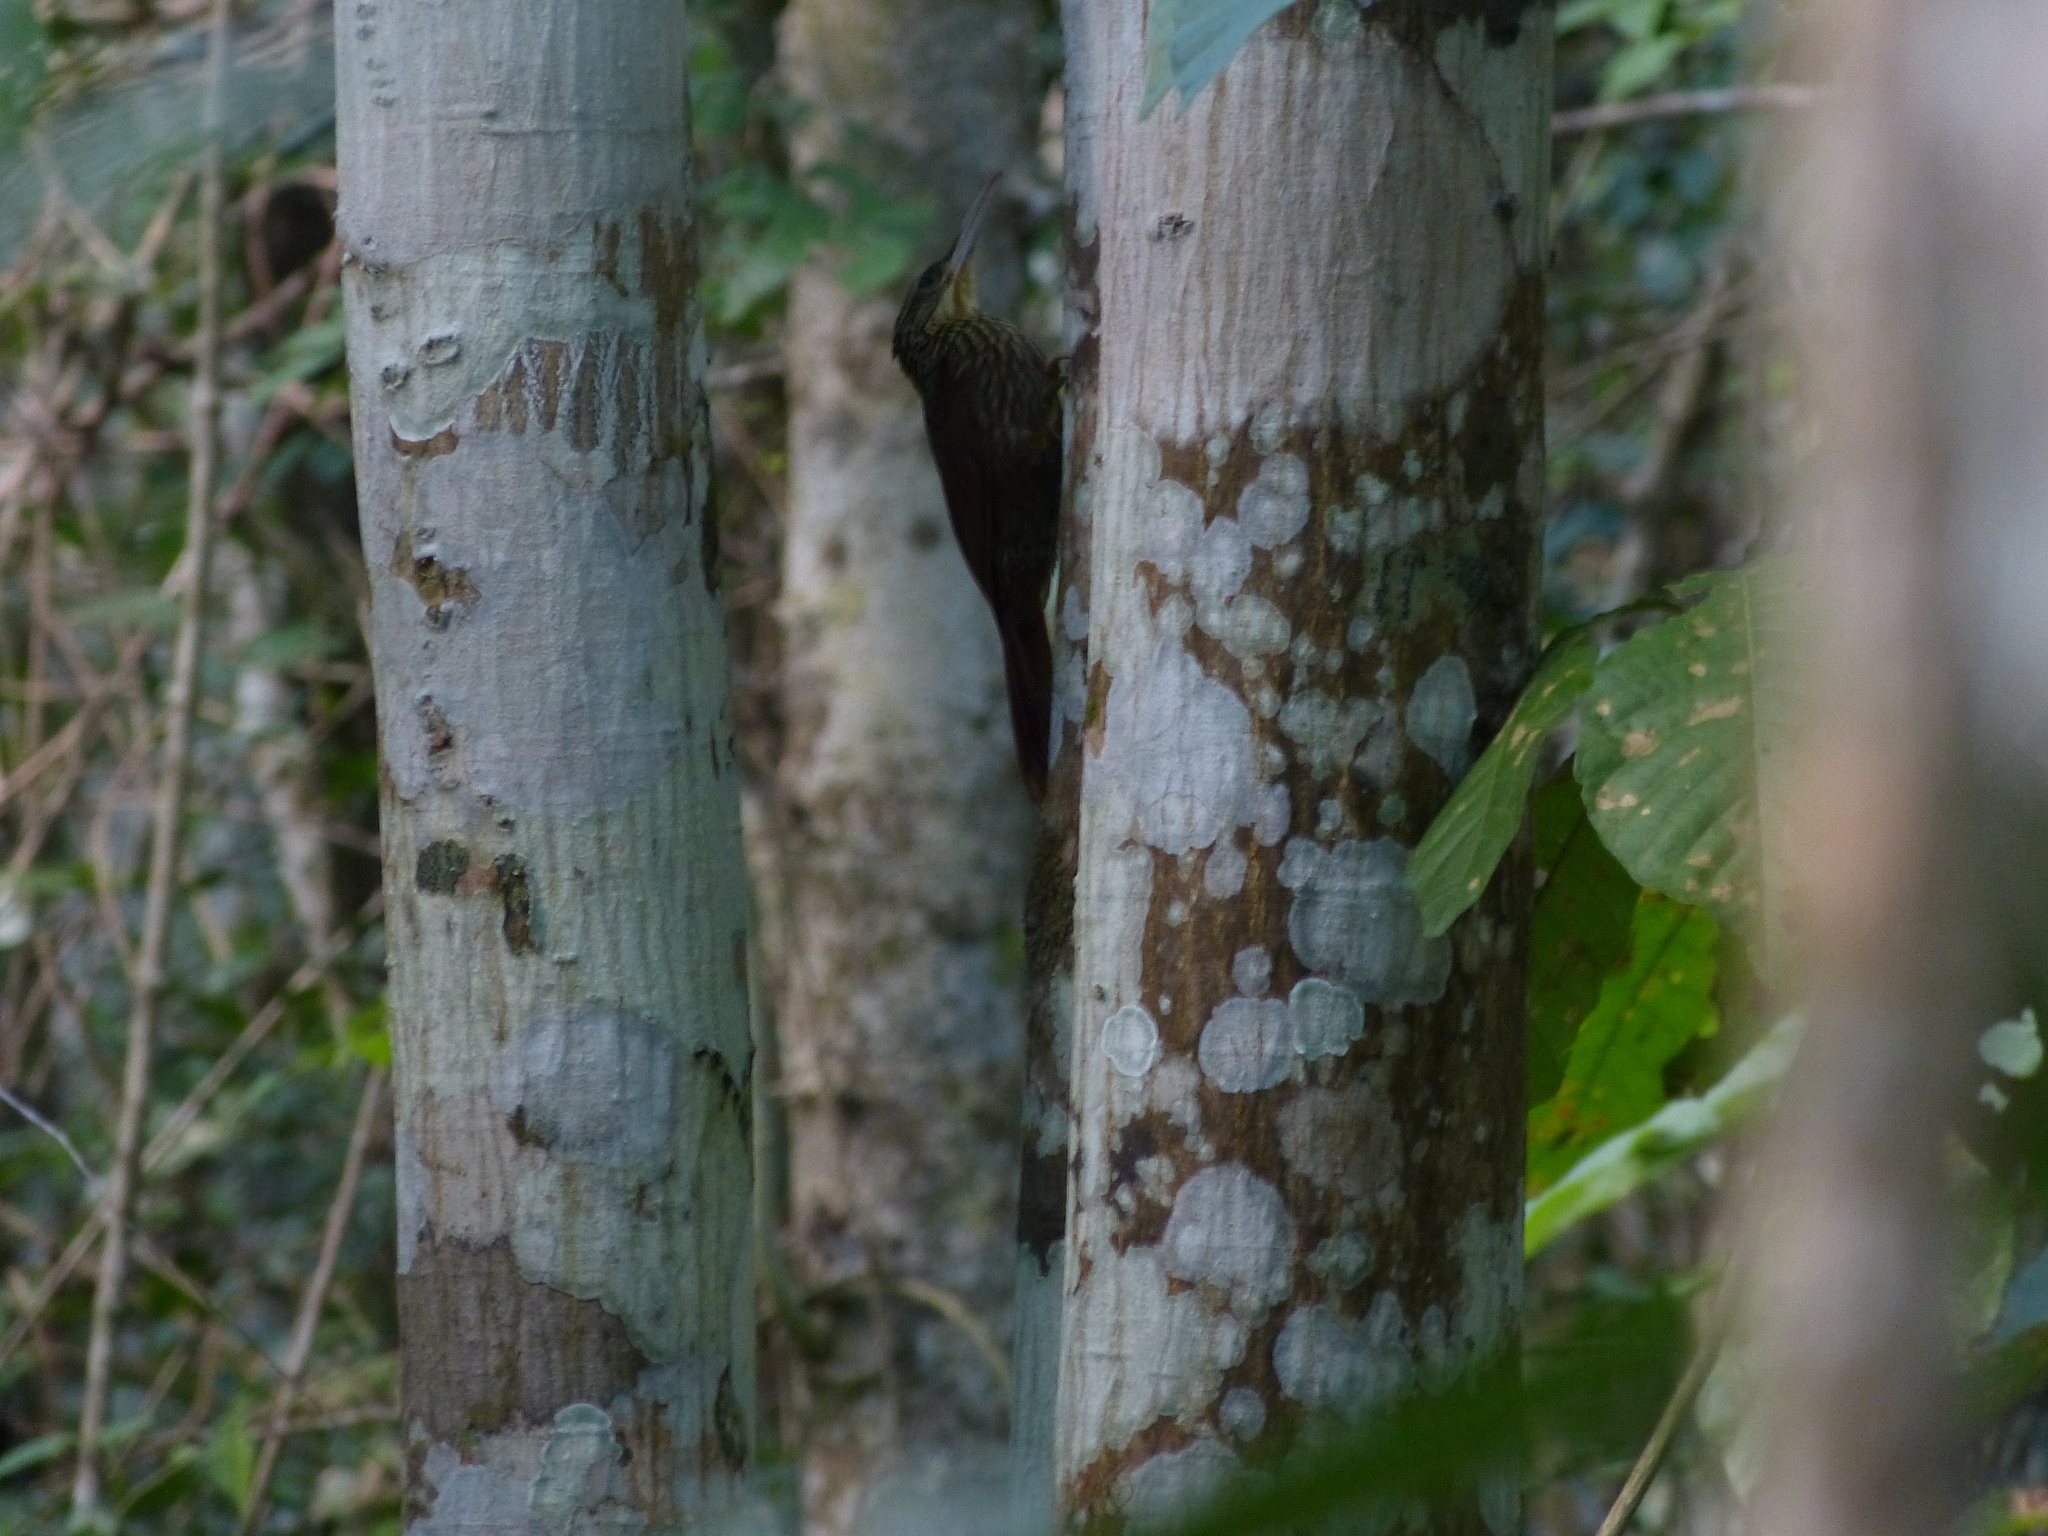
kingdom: Animalia
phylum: Chordata
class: Aves
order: Passeriformes
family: Furnariidae
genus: Xiphorhynchus
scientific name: Xiphorhynchus flavigaster
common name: Ivory-billed woodcreeper
